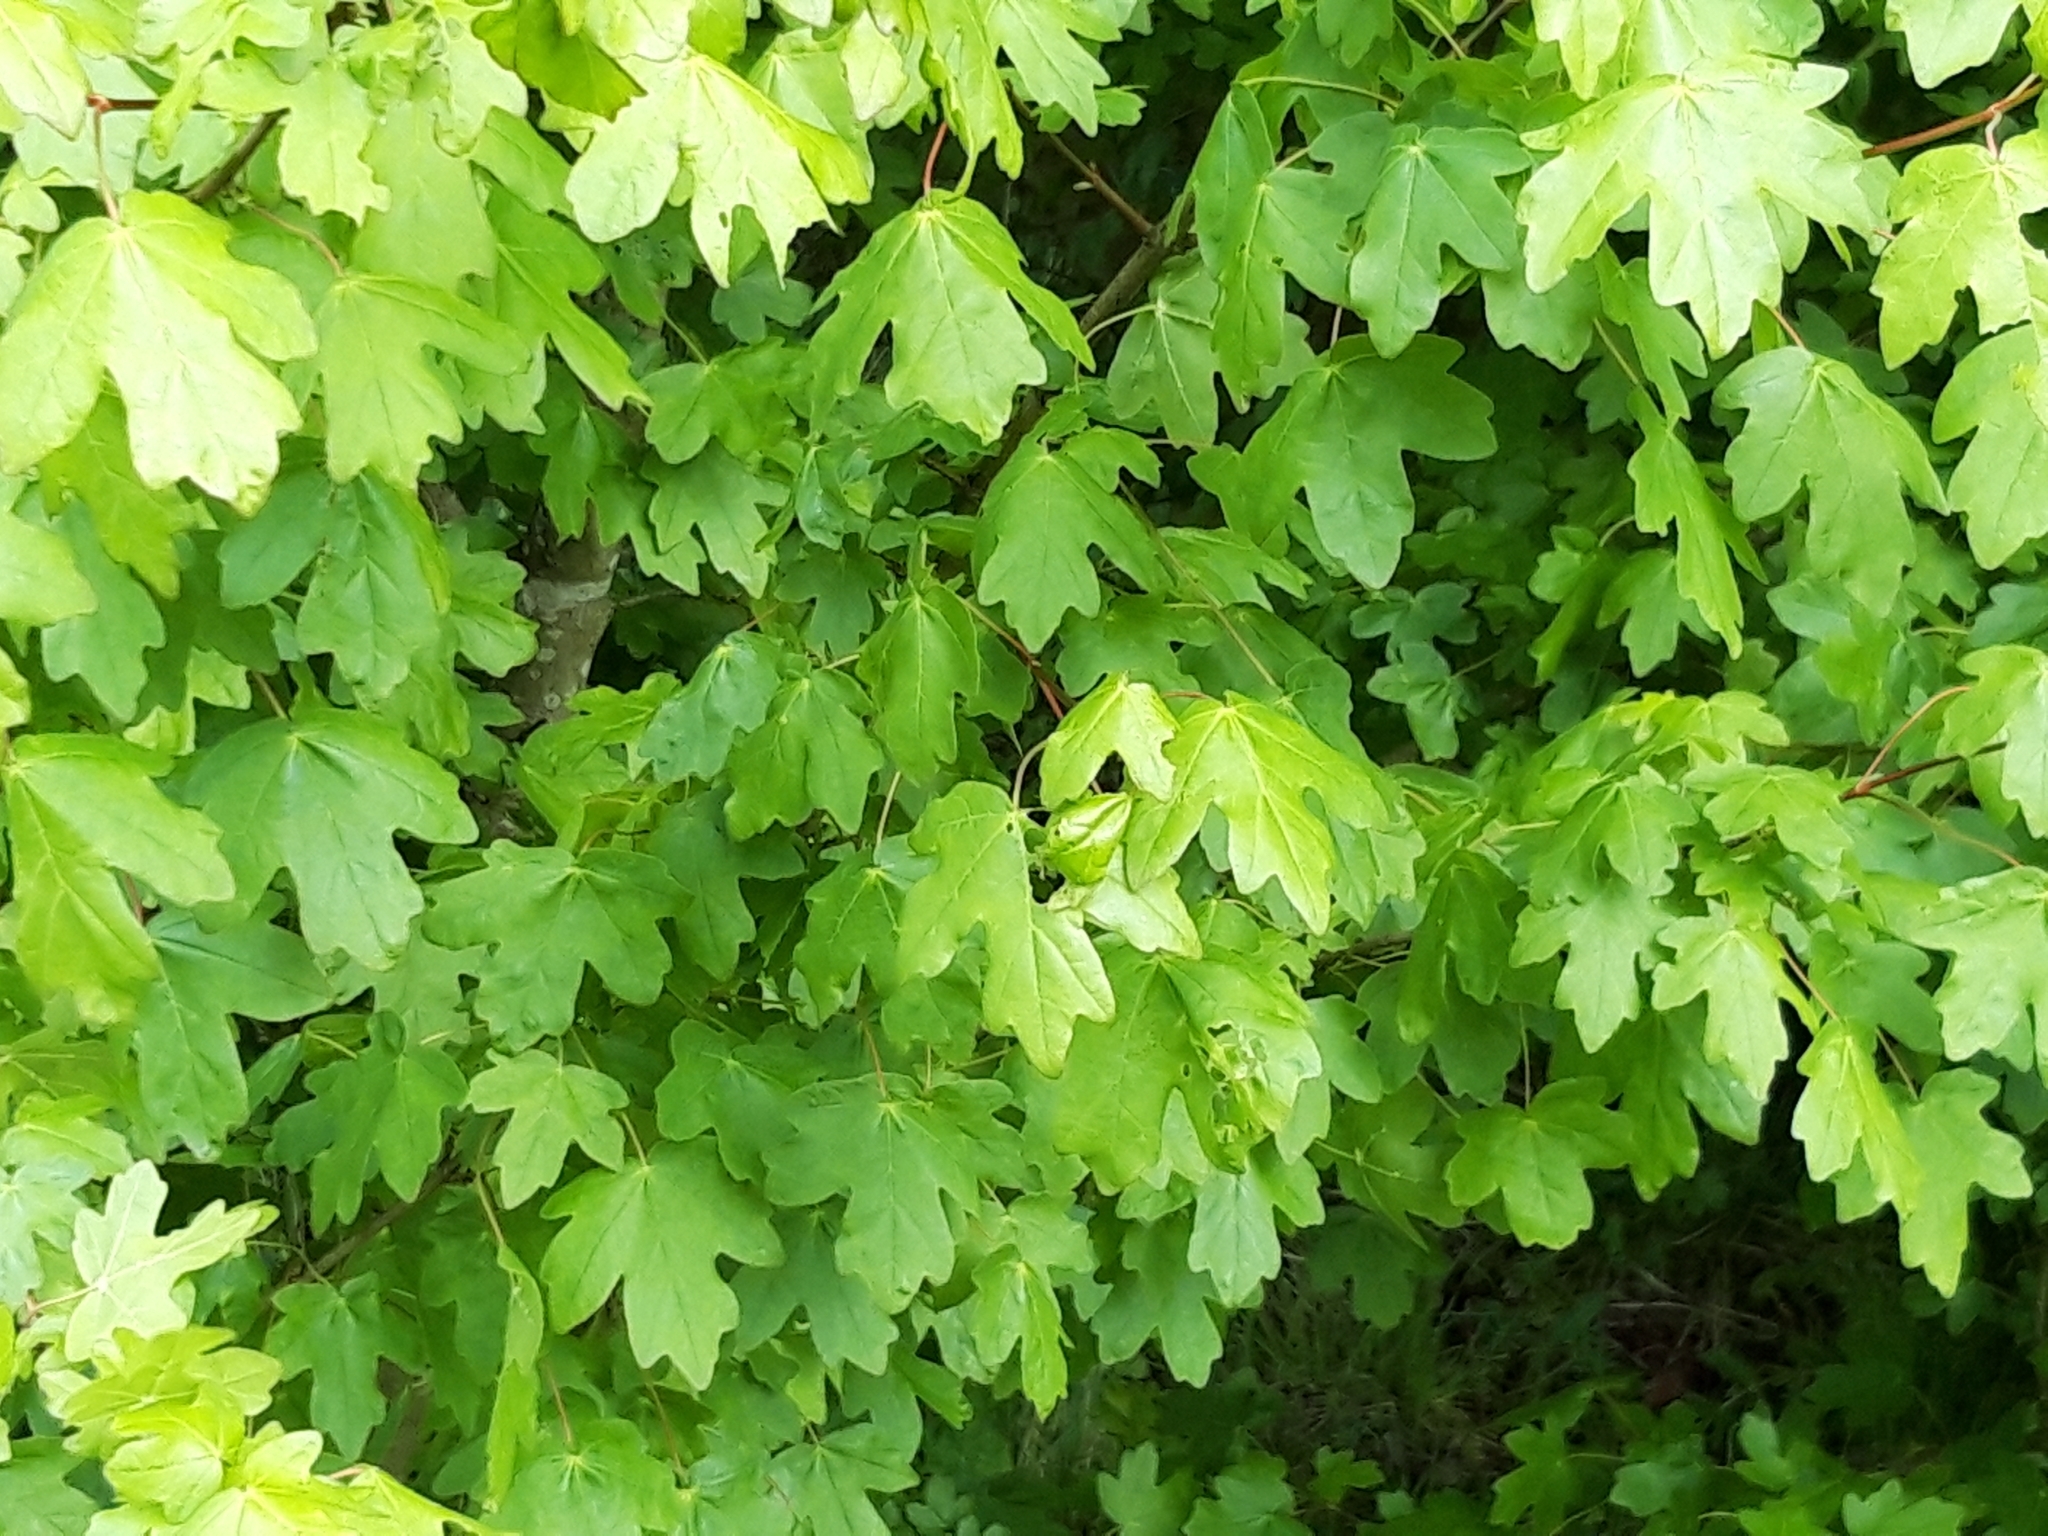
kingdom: Plantae
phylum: Tracheophyta
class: Magnoliopsida
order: Sapindales
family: Sapindaceae
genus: Acer
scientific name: Acer campestre
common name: Field maple
